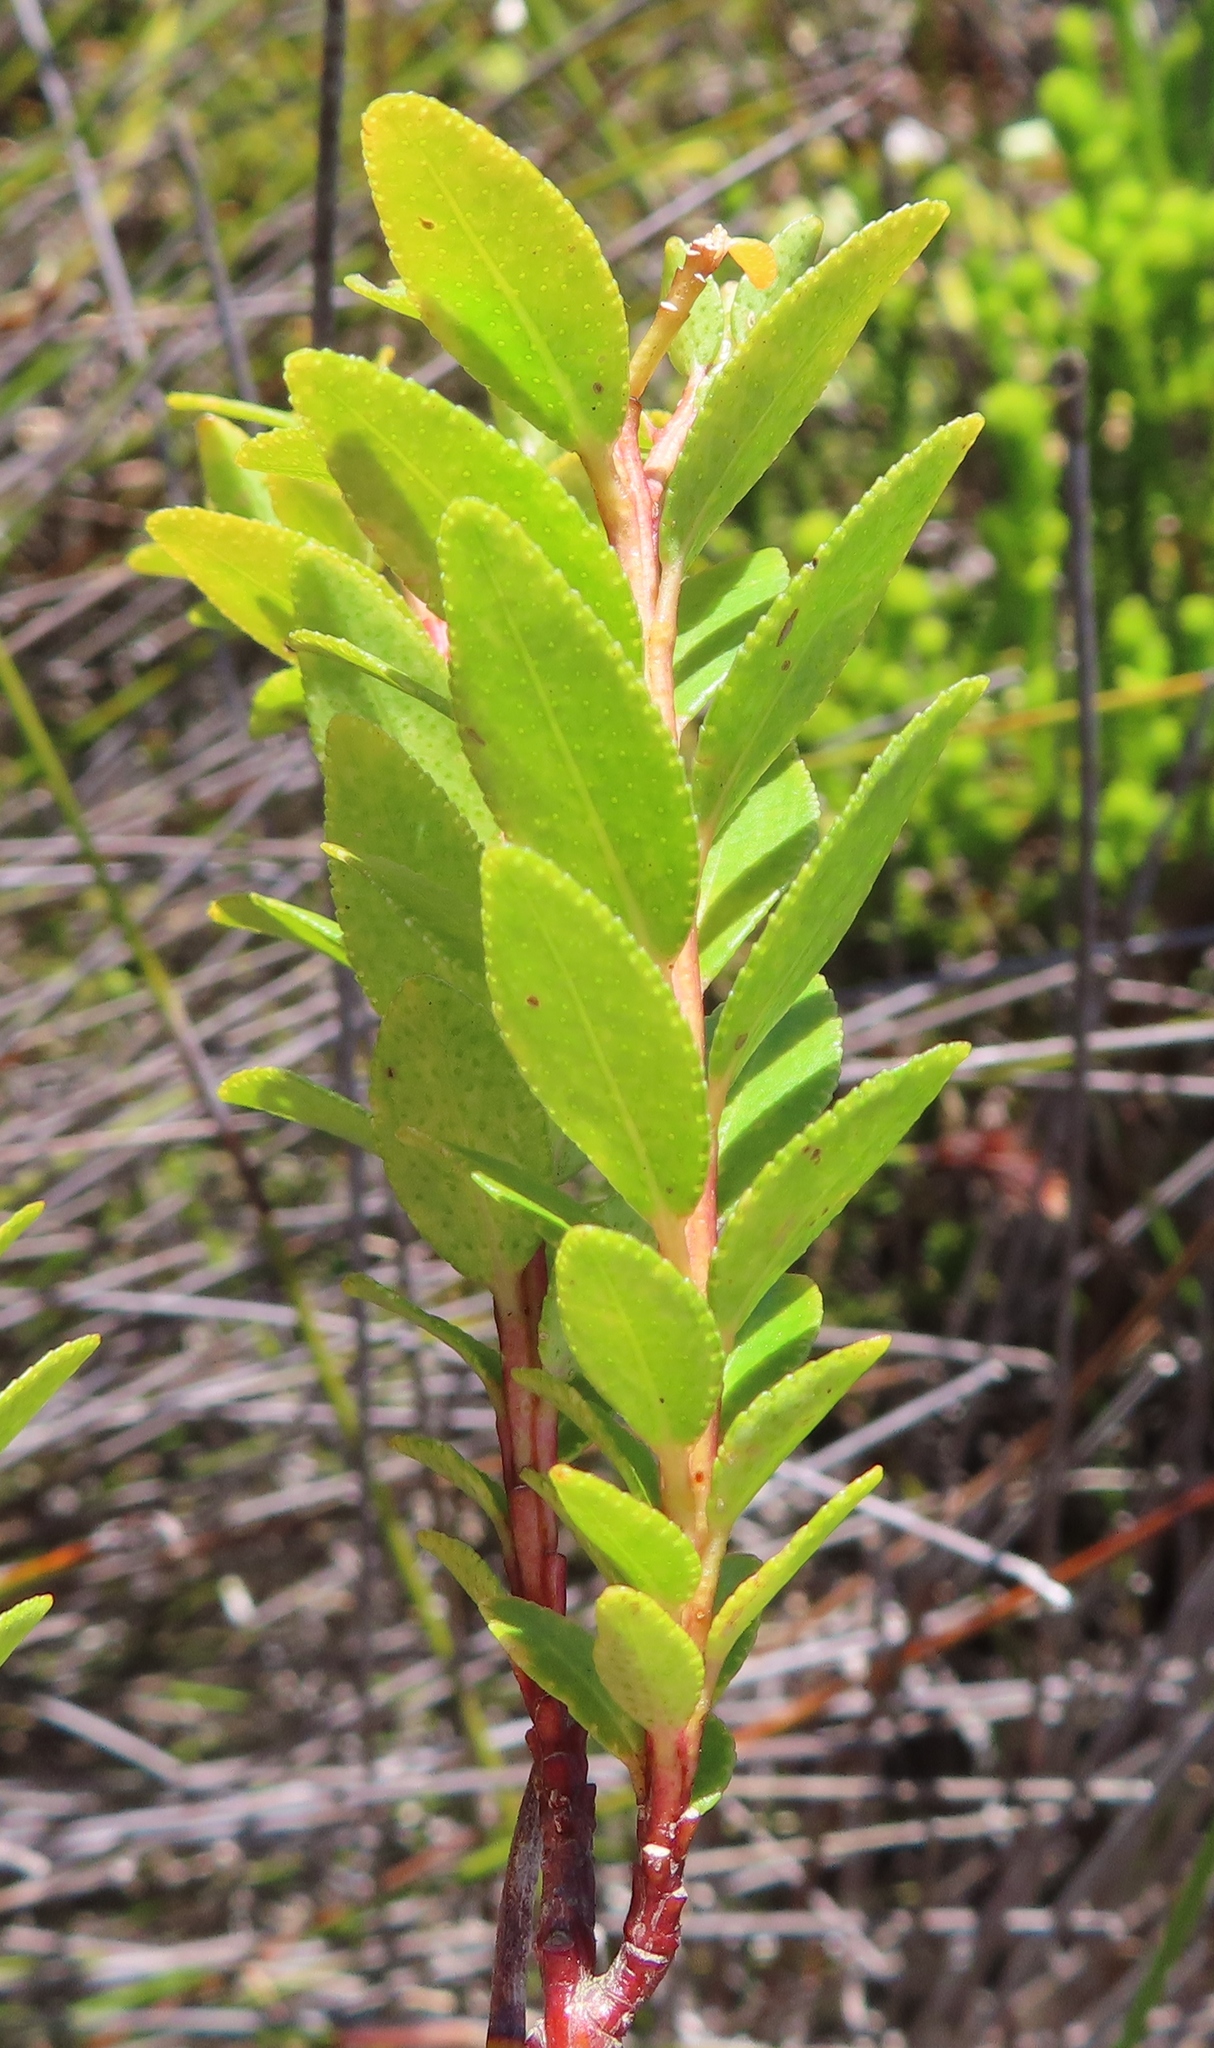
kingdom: Plantae
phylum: Tracheophyta
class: Magnoliopsida
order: Sapindales
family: Rutaceae
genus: Agathosma
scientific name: Agathosma ovata
